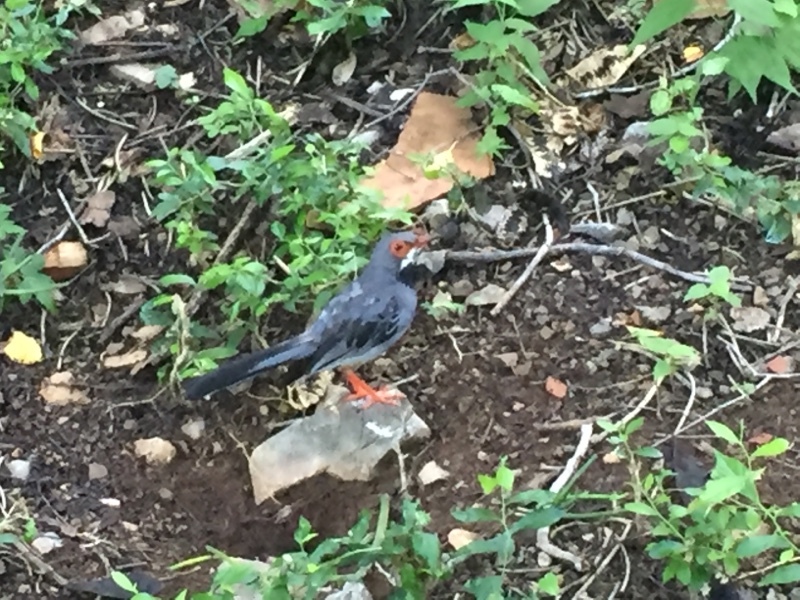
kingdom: Animalia
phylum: Chordata
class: Aves
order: Passeriformes
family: Turdidae
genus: Turdus
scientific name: Turdus plumbeus
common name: Red-legged thrush
